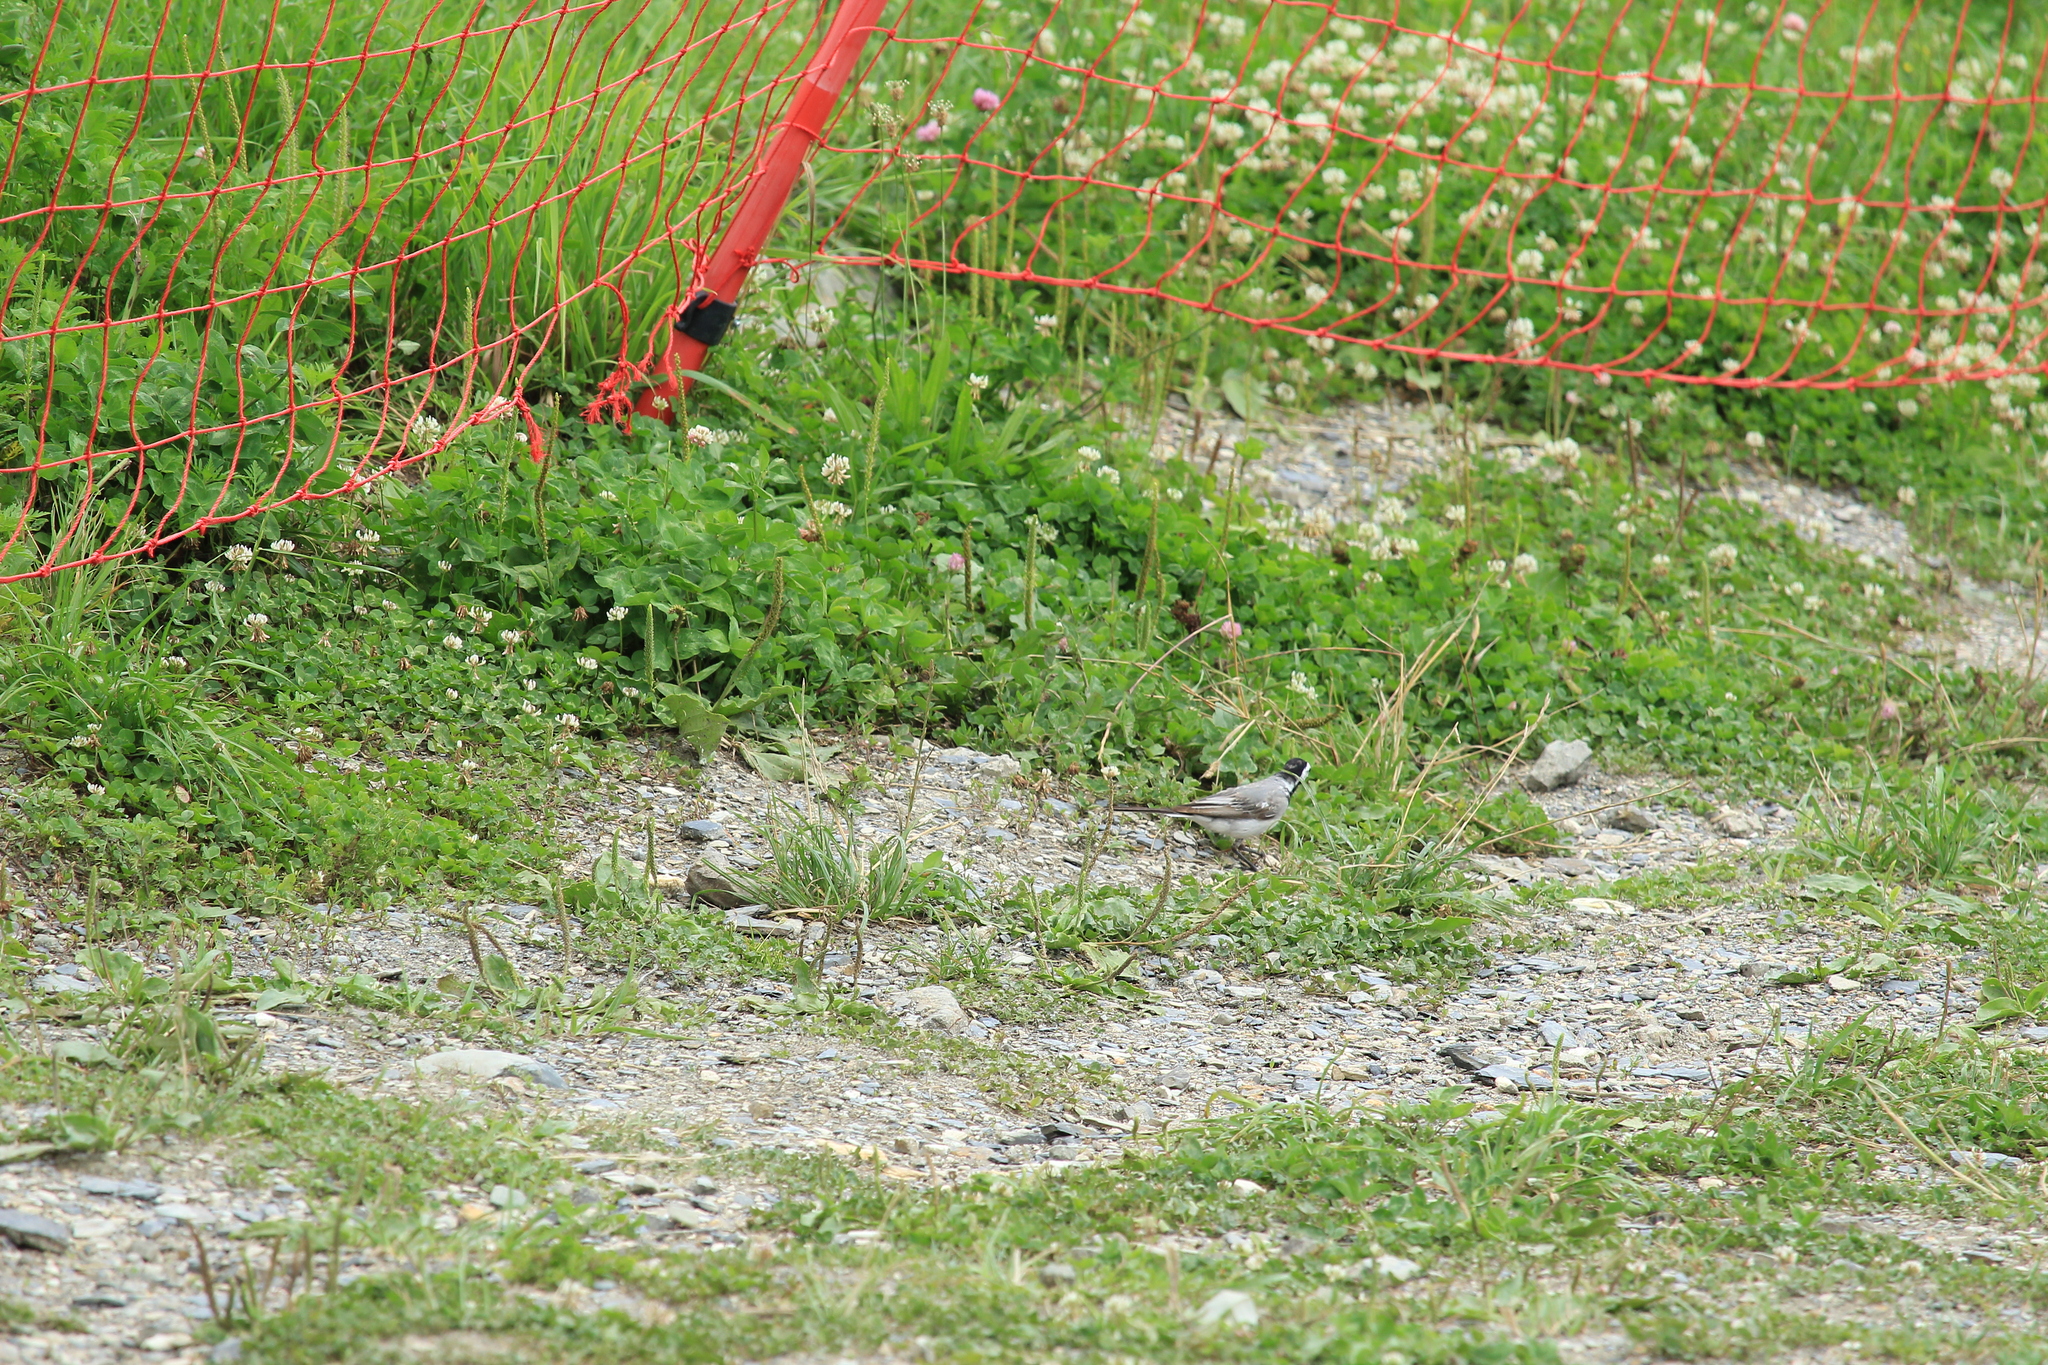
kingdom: Animalia
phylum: Chordata
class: Aves
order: Passeriformes
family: Motacillidae
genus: Motacilla
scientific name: Motacilla alba
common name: White wagtail
